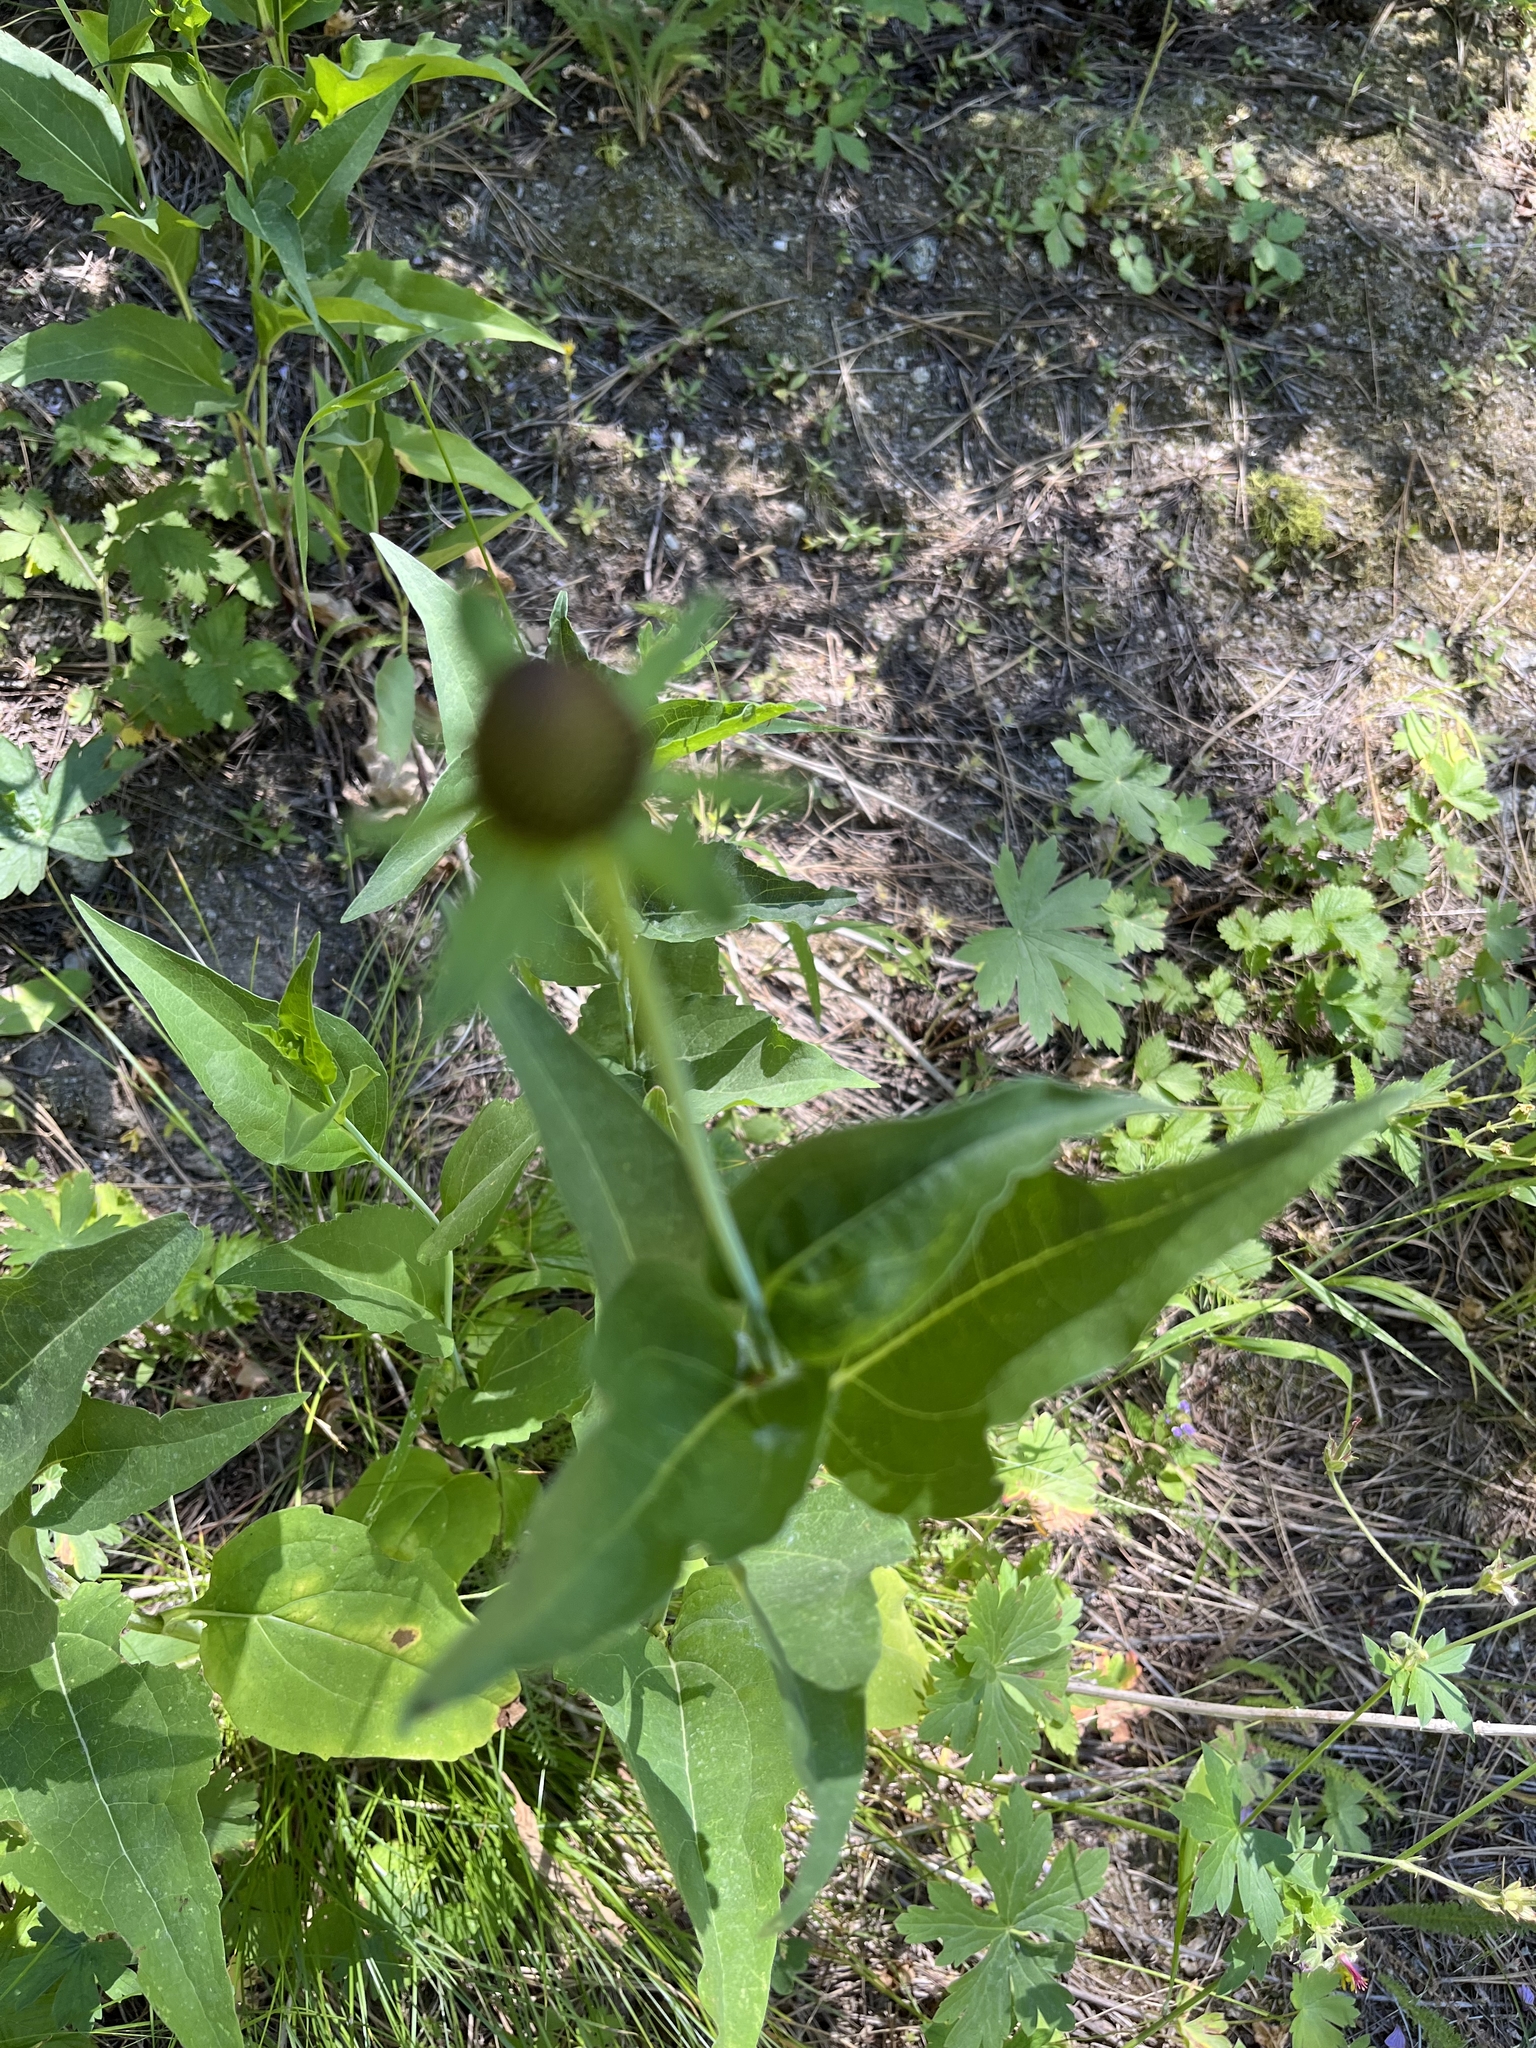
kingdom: Plantae
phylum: Tracheophyta
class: Magnoliopsida
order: Asterales
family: Asteraceae
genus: Rudbeckia
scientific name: Rudbeckia occidentalis
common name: Western coneflower
